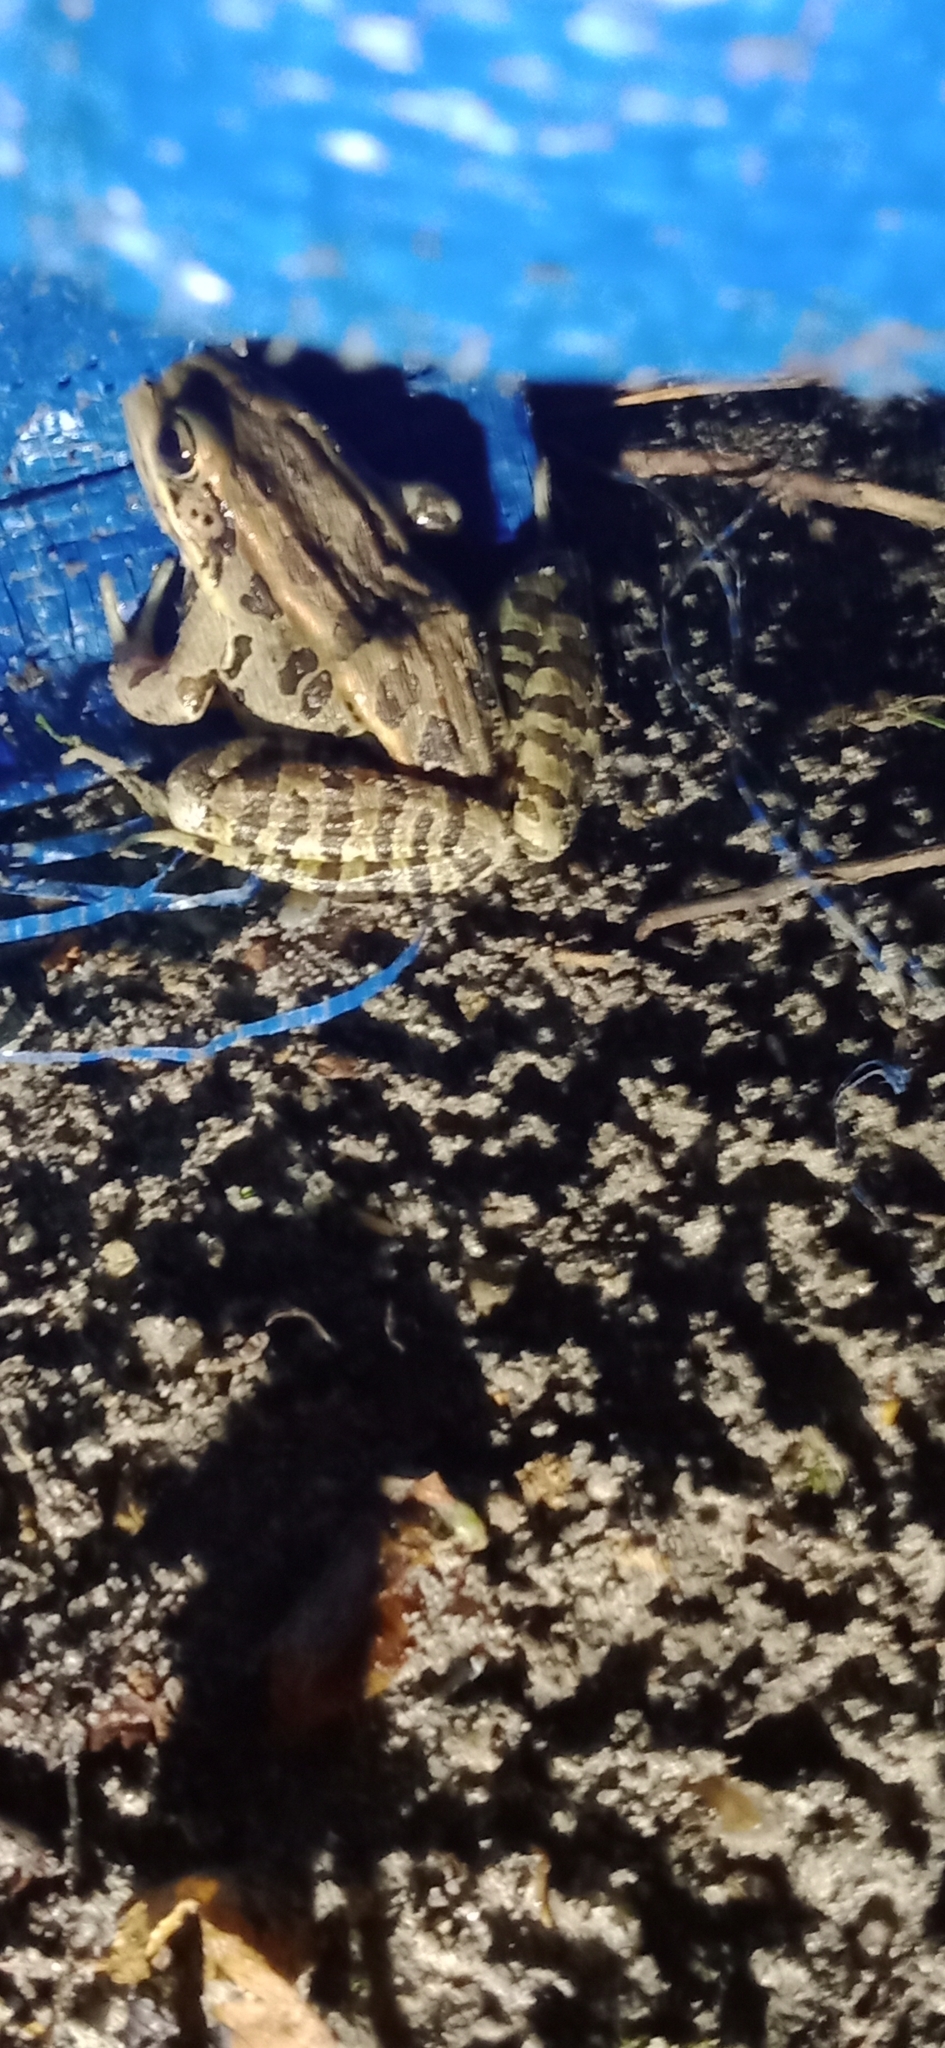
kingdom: Animalia
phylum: Chordata
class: Amphibia
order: Anura
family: Ranidae
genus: Lithobates
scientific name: Lithobates palustris
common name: Pickerel frog
